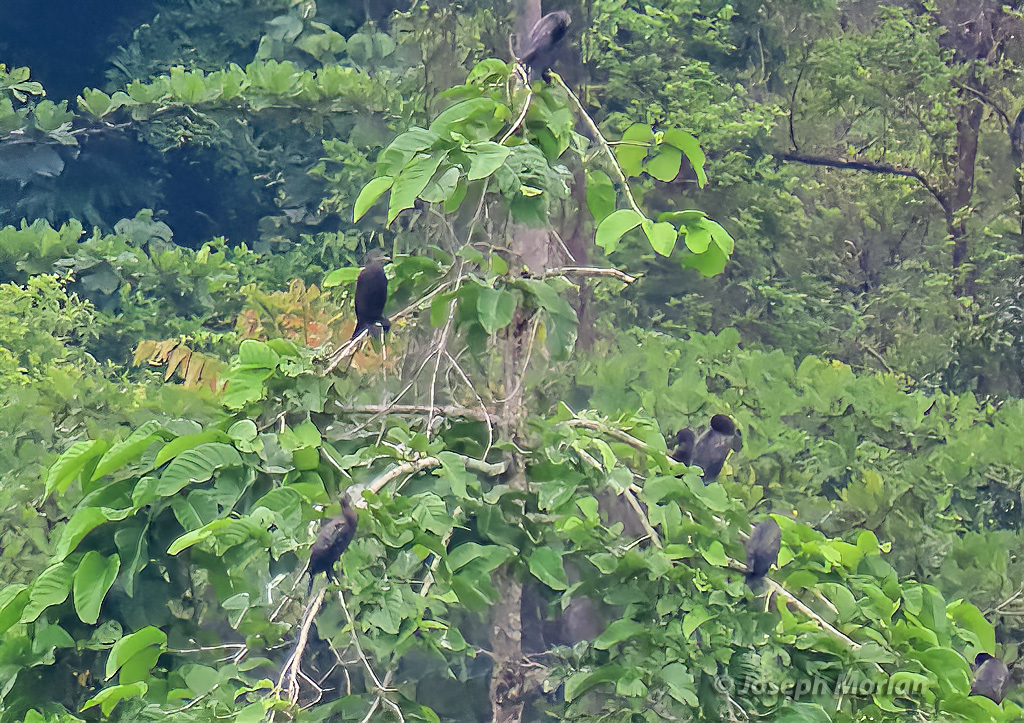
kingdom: Animalia
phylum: Chordata
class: Aves
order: Suliformes
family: Phalacrocoracidae
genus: Phalacrocorax
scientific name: Phalacrocorax sulcirostris
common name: Little black cormorant
